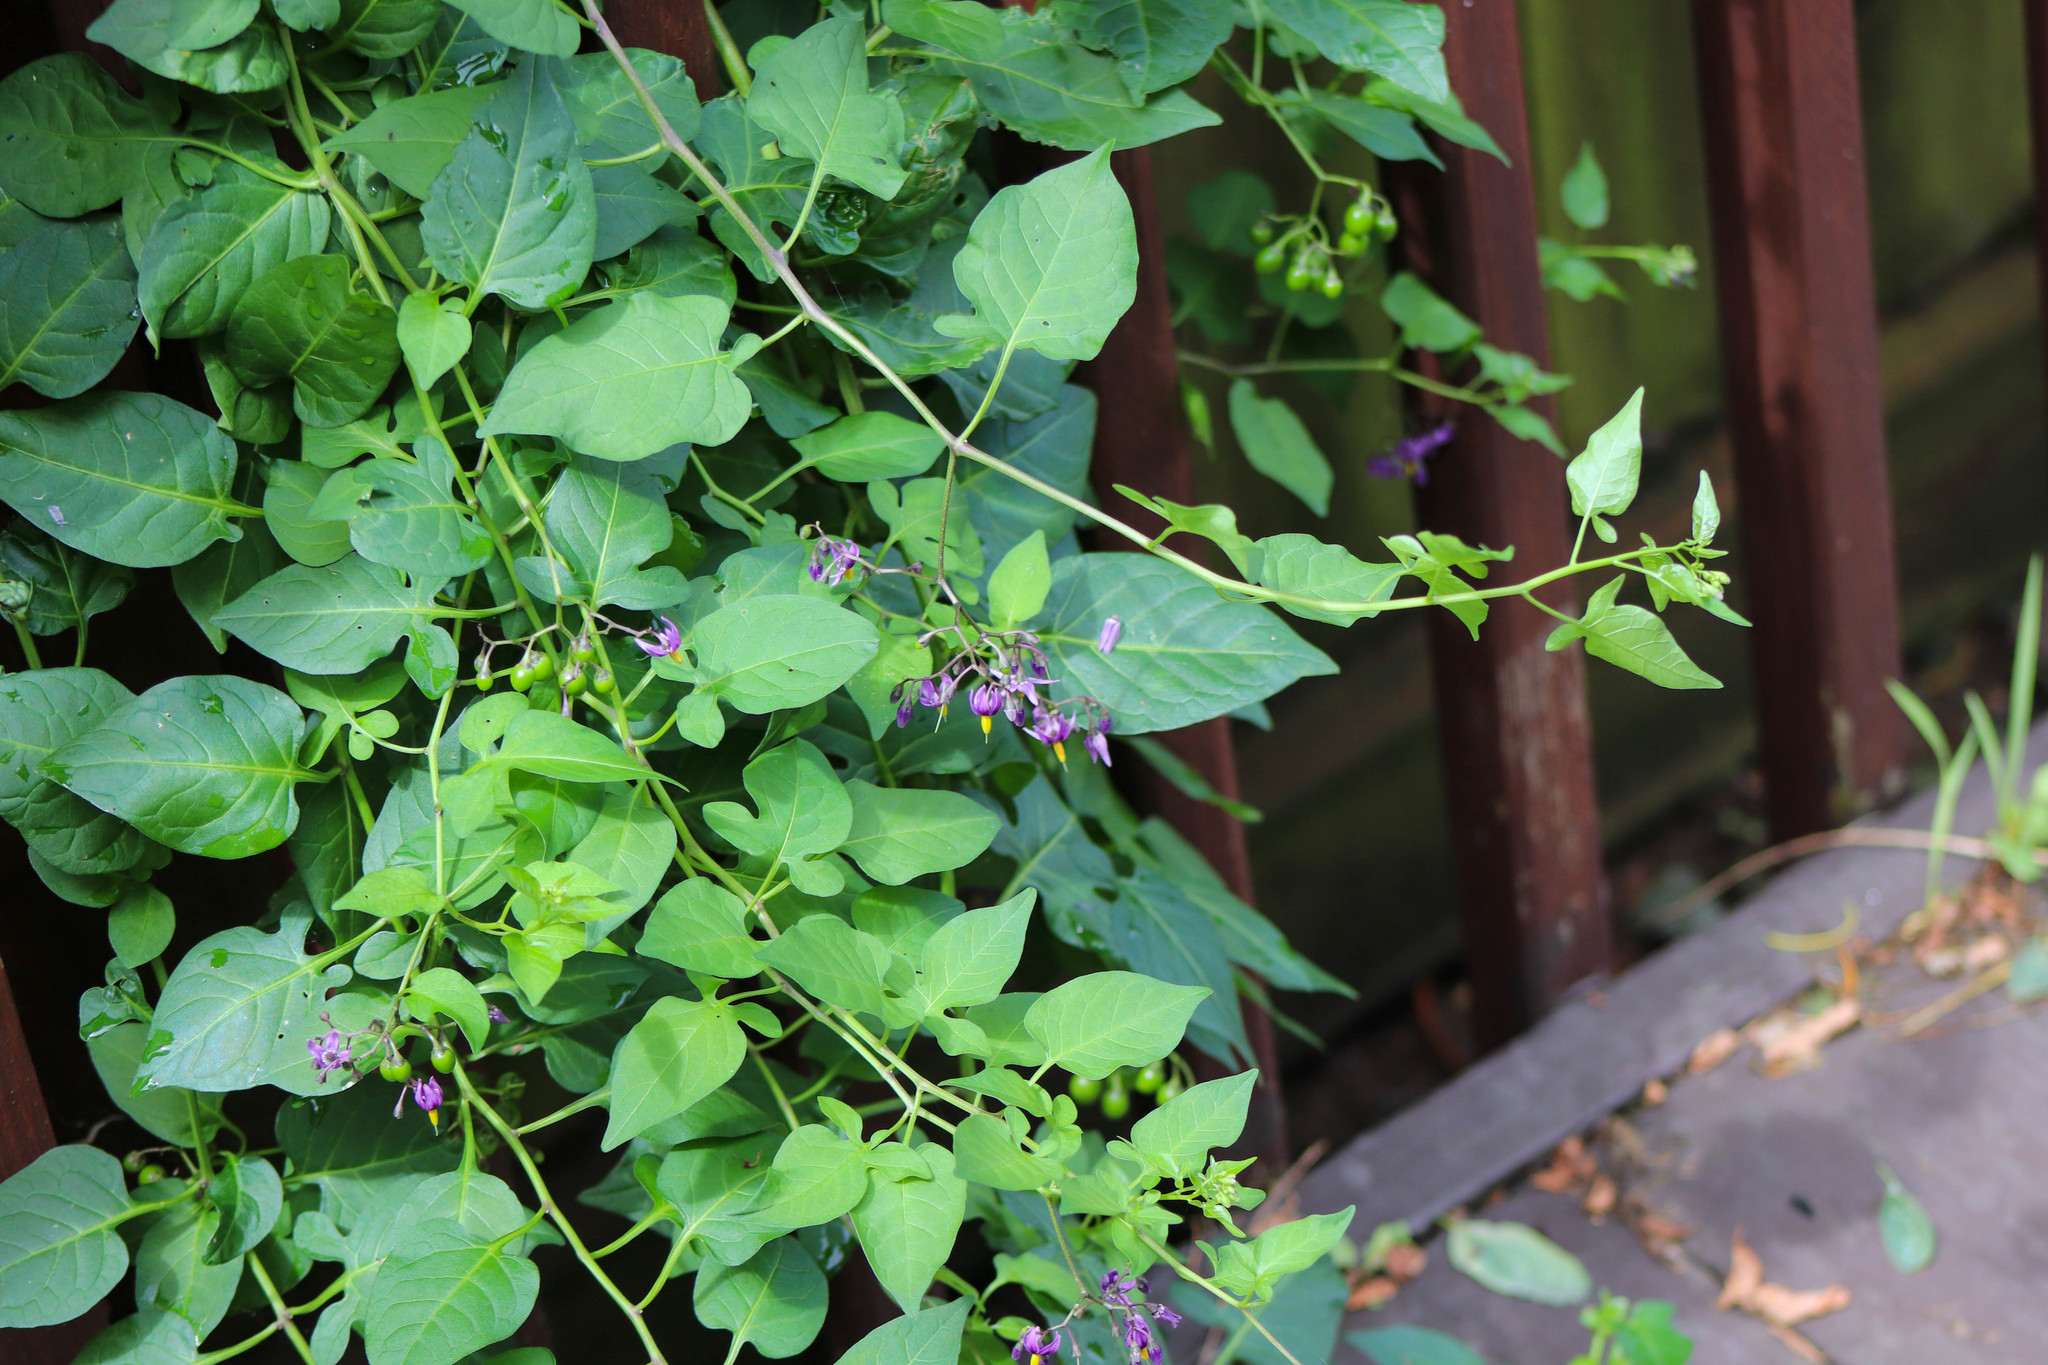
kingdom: Plantae
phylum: Tracheophyta
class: Magnoliopsida
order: Solanales
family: Solanaceae
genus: Solanum
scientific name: Solanum dulcamara
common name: Climbing nightshade
